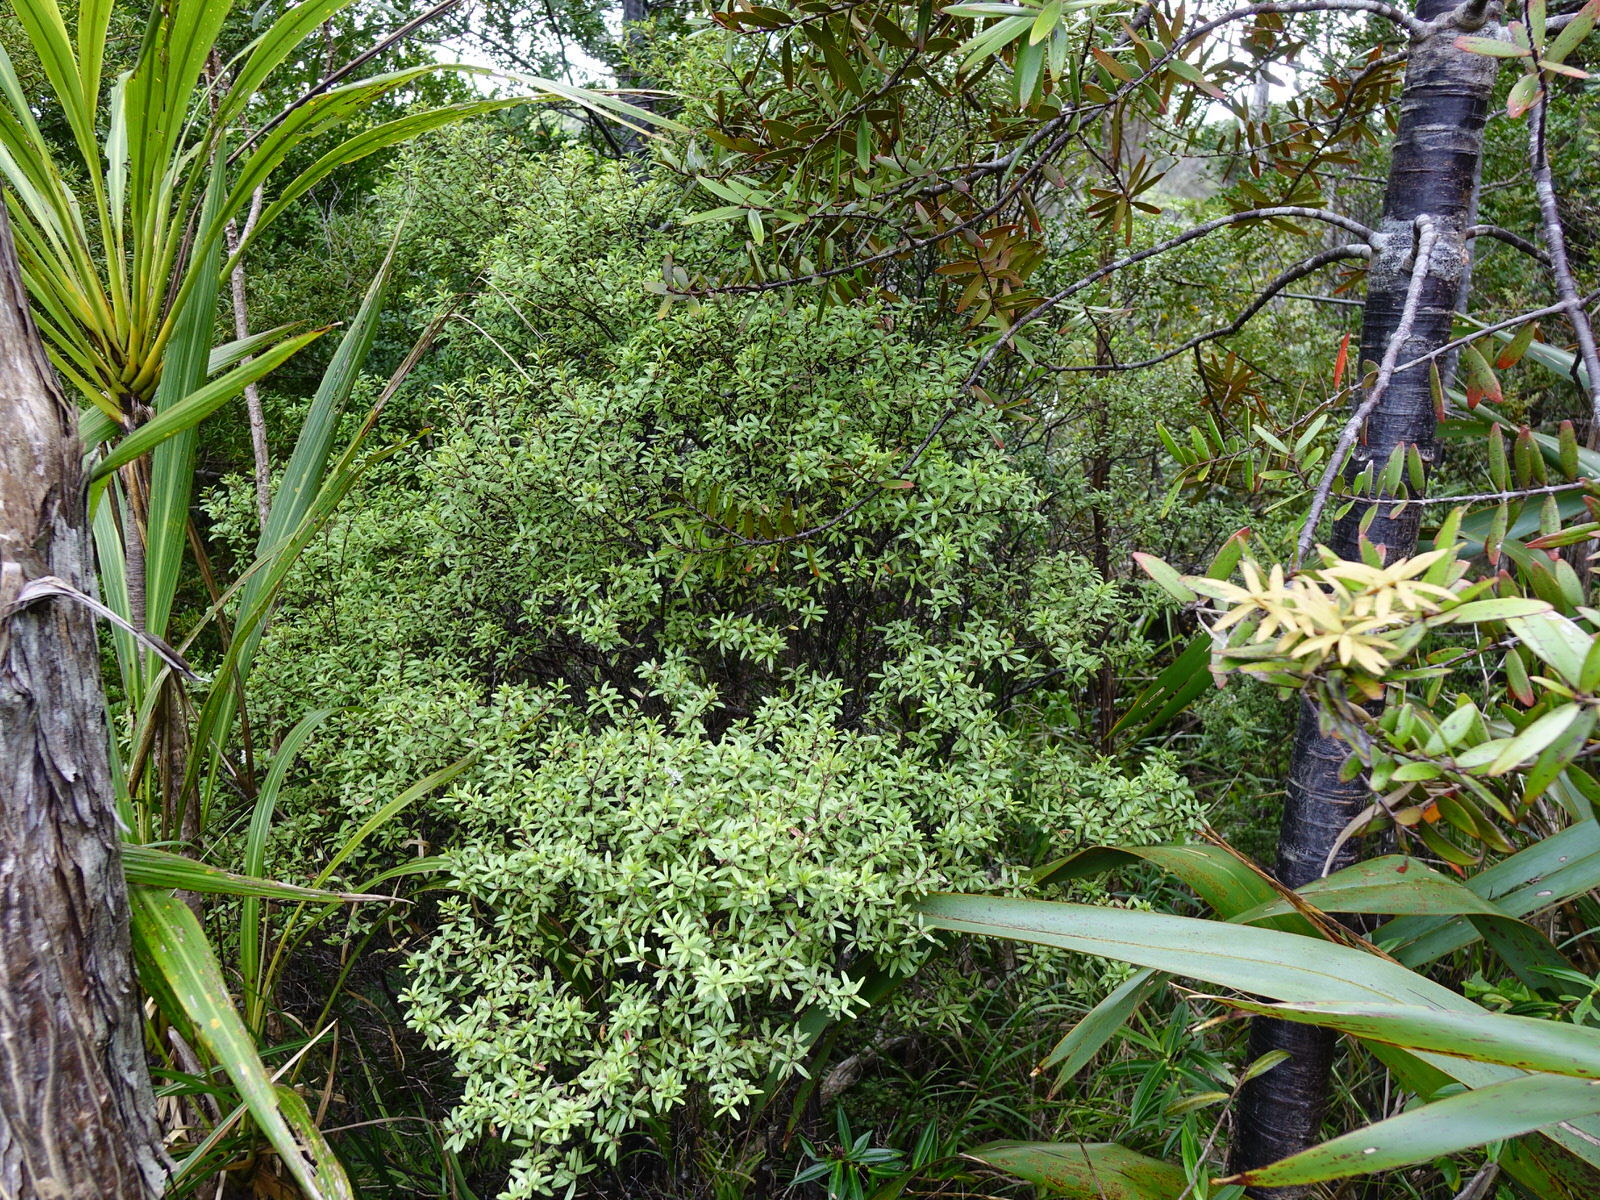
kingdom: Plantae
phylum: Tracheophyta
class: Magnoliopsida
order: Sapindales
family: Rutaceae
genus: Leionema
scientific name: Leionema nudum
